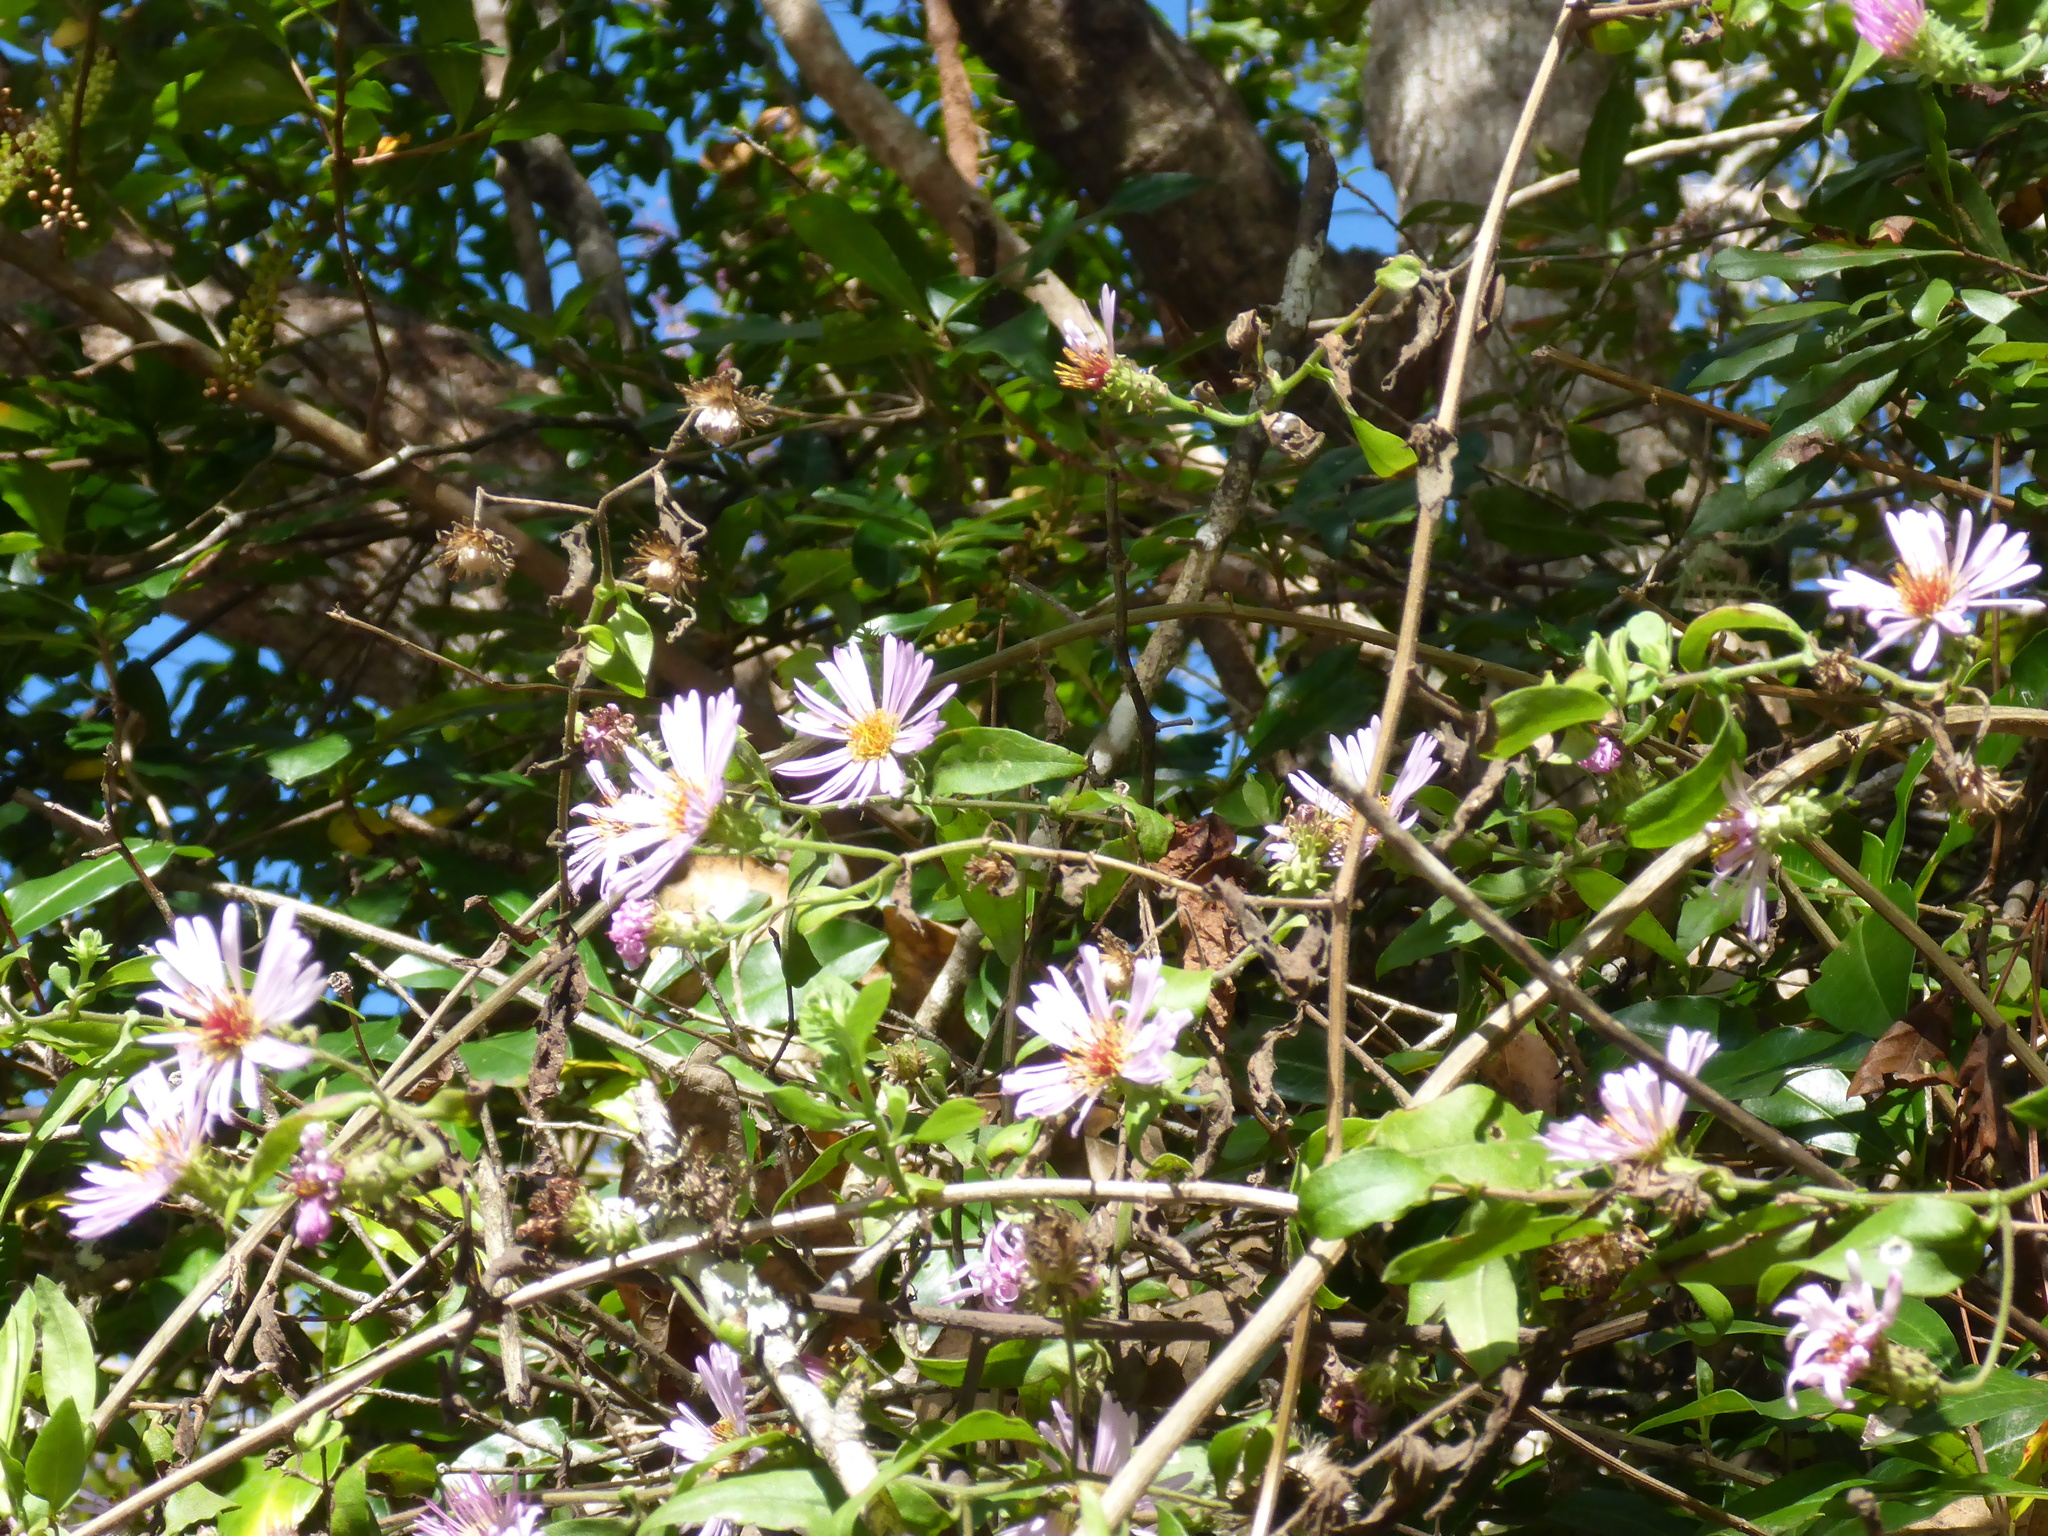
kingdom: Plantae
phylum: Tracheophyta
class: Magnoliopsida
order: Asterales
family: Asteraceae
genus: Ampelaster
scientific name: Ampelaster carolinianus
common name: Climbing aster
